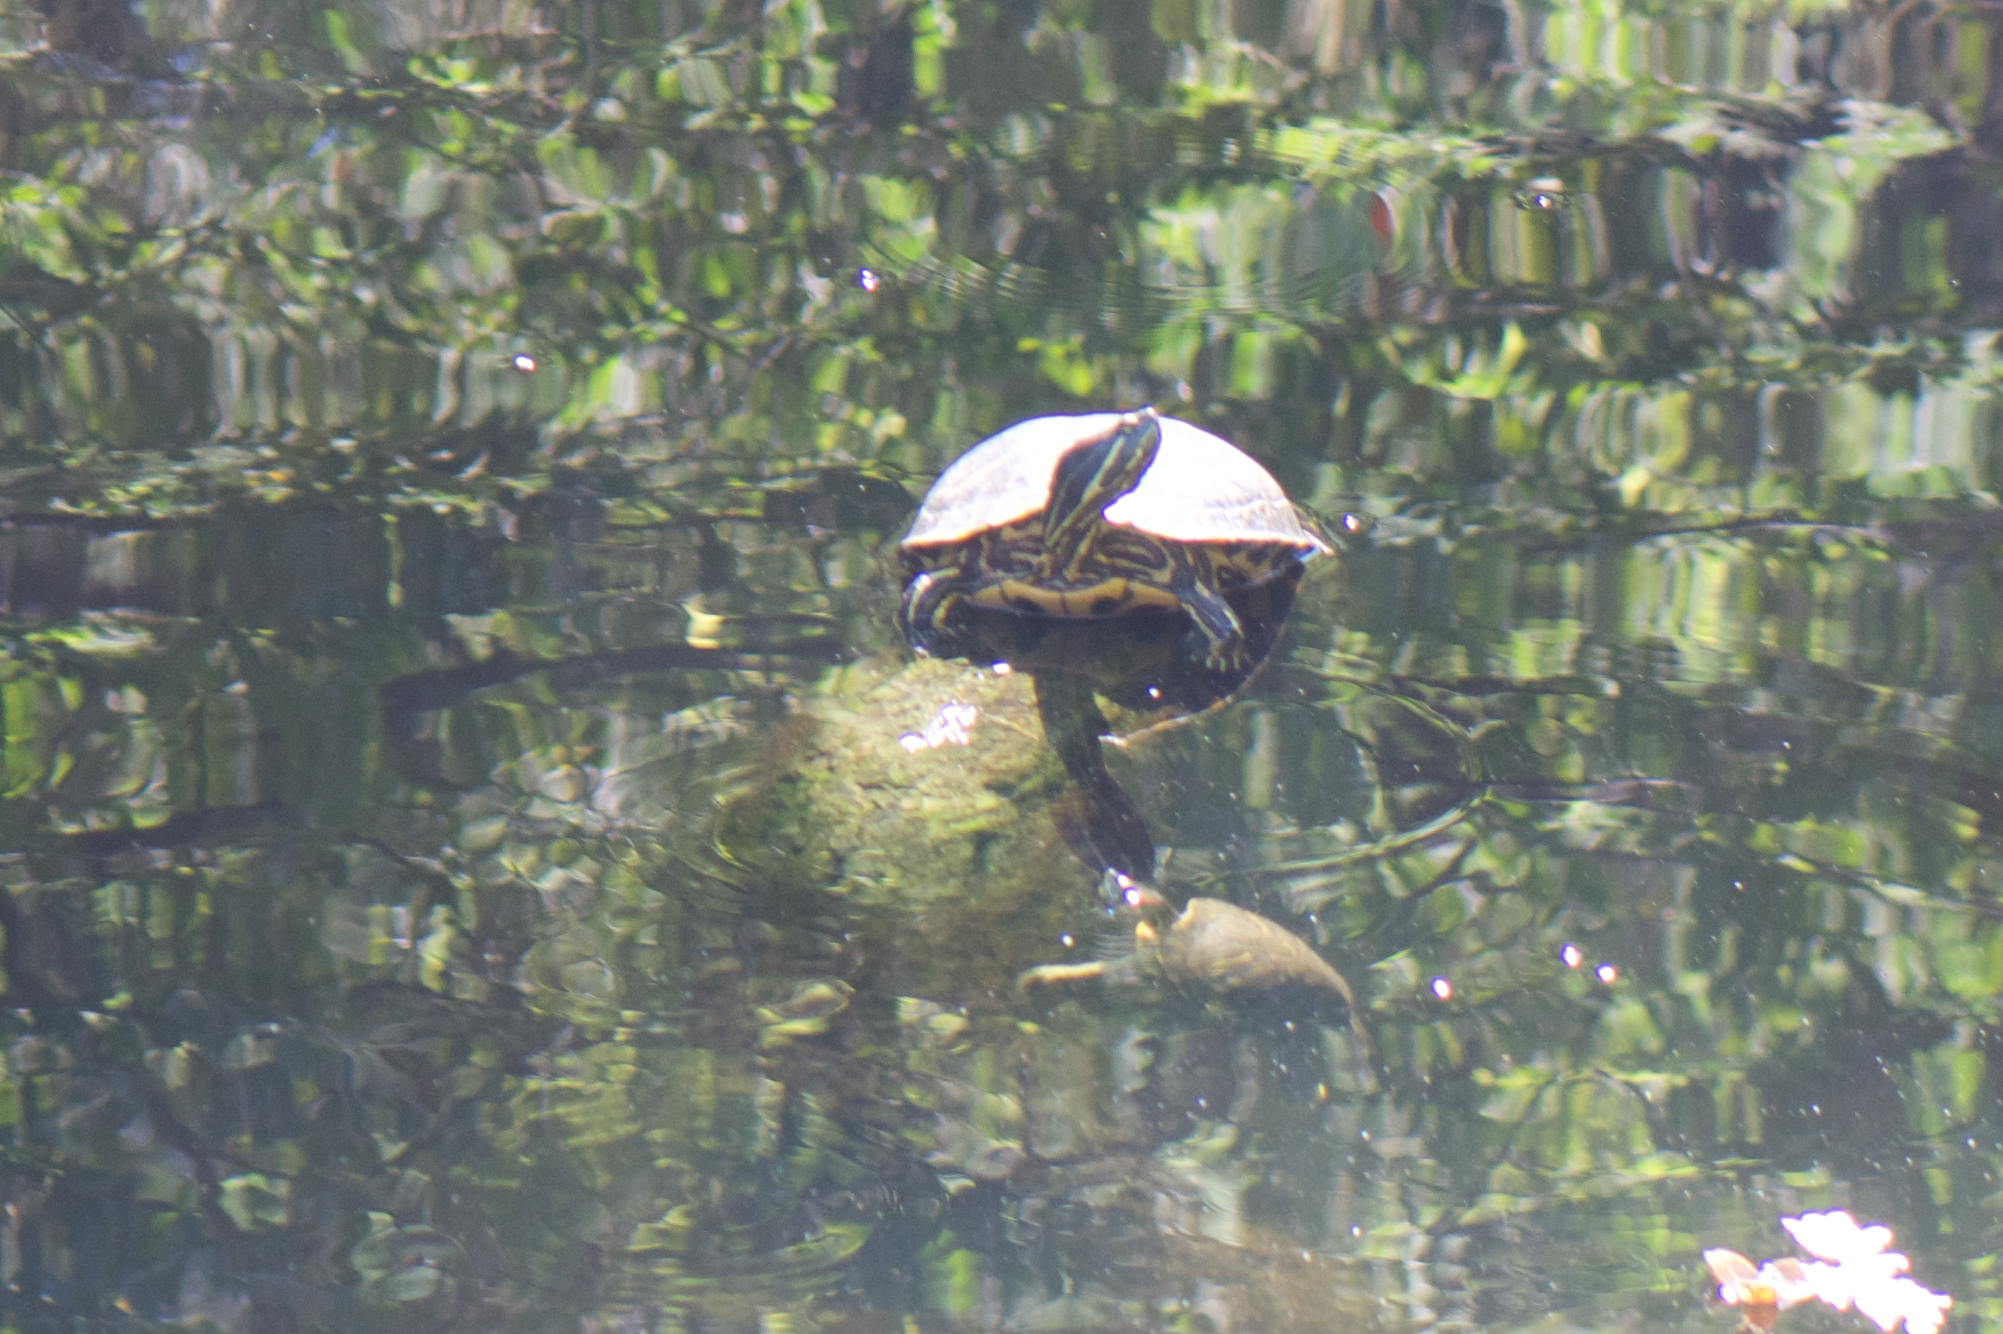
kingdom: Animalia
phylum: Chordata
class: Testudines
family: Emydidae
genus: Trachemys
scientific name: Trachemys scripta
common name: Slider
